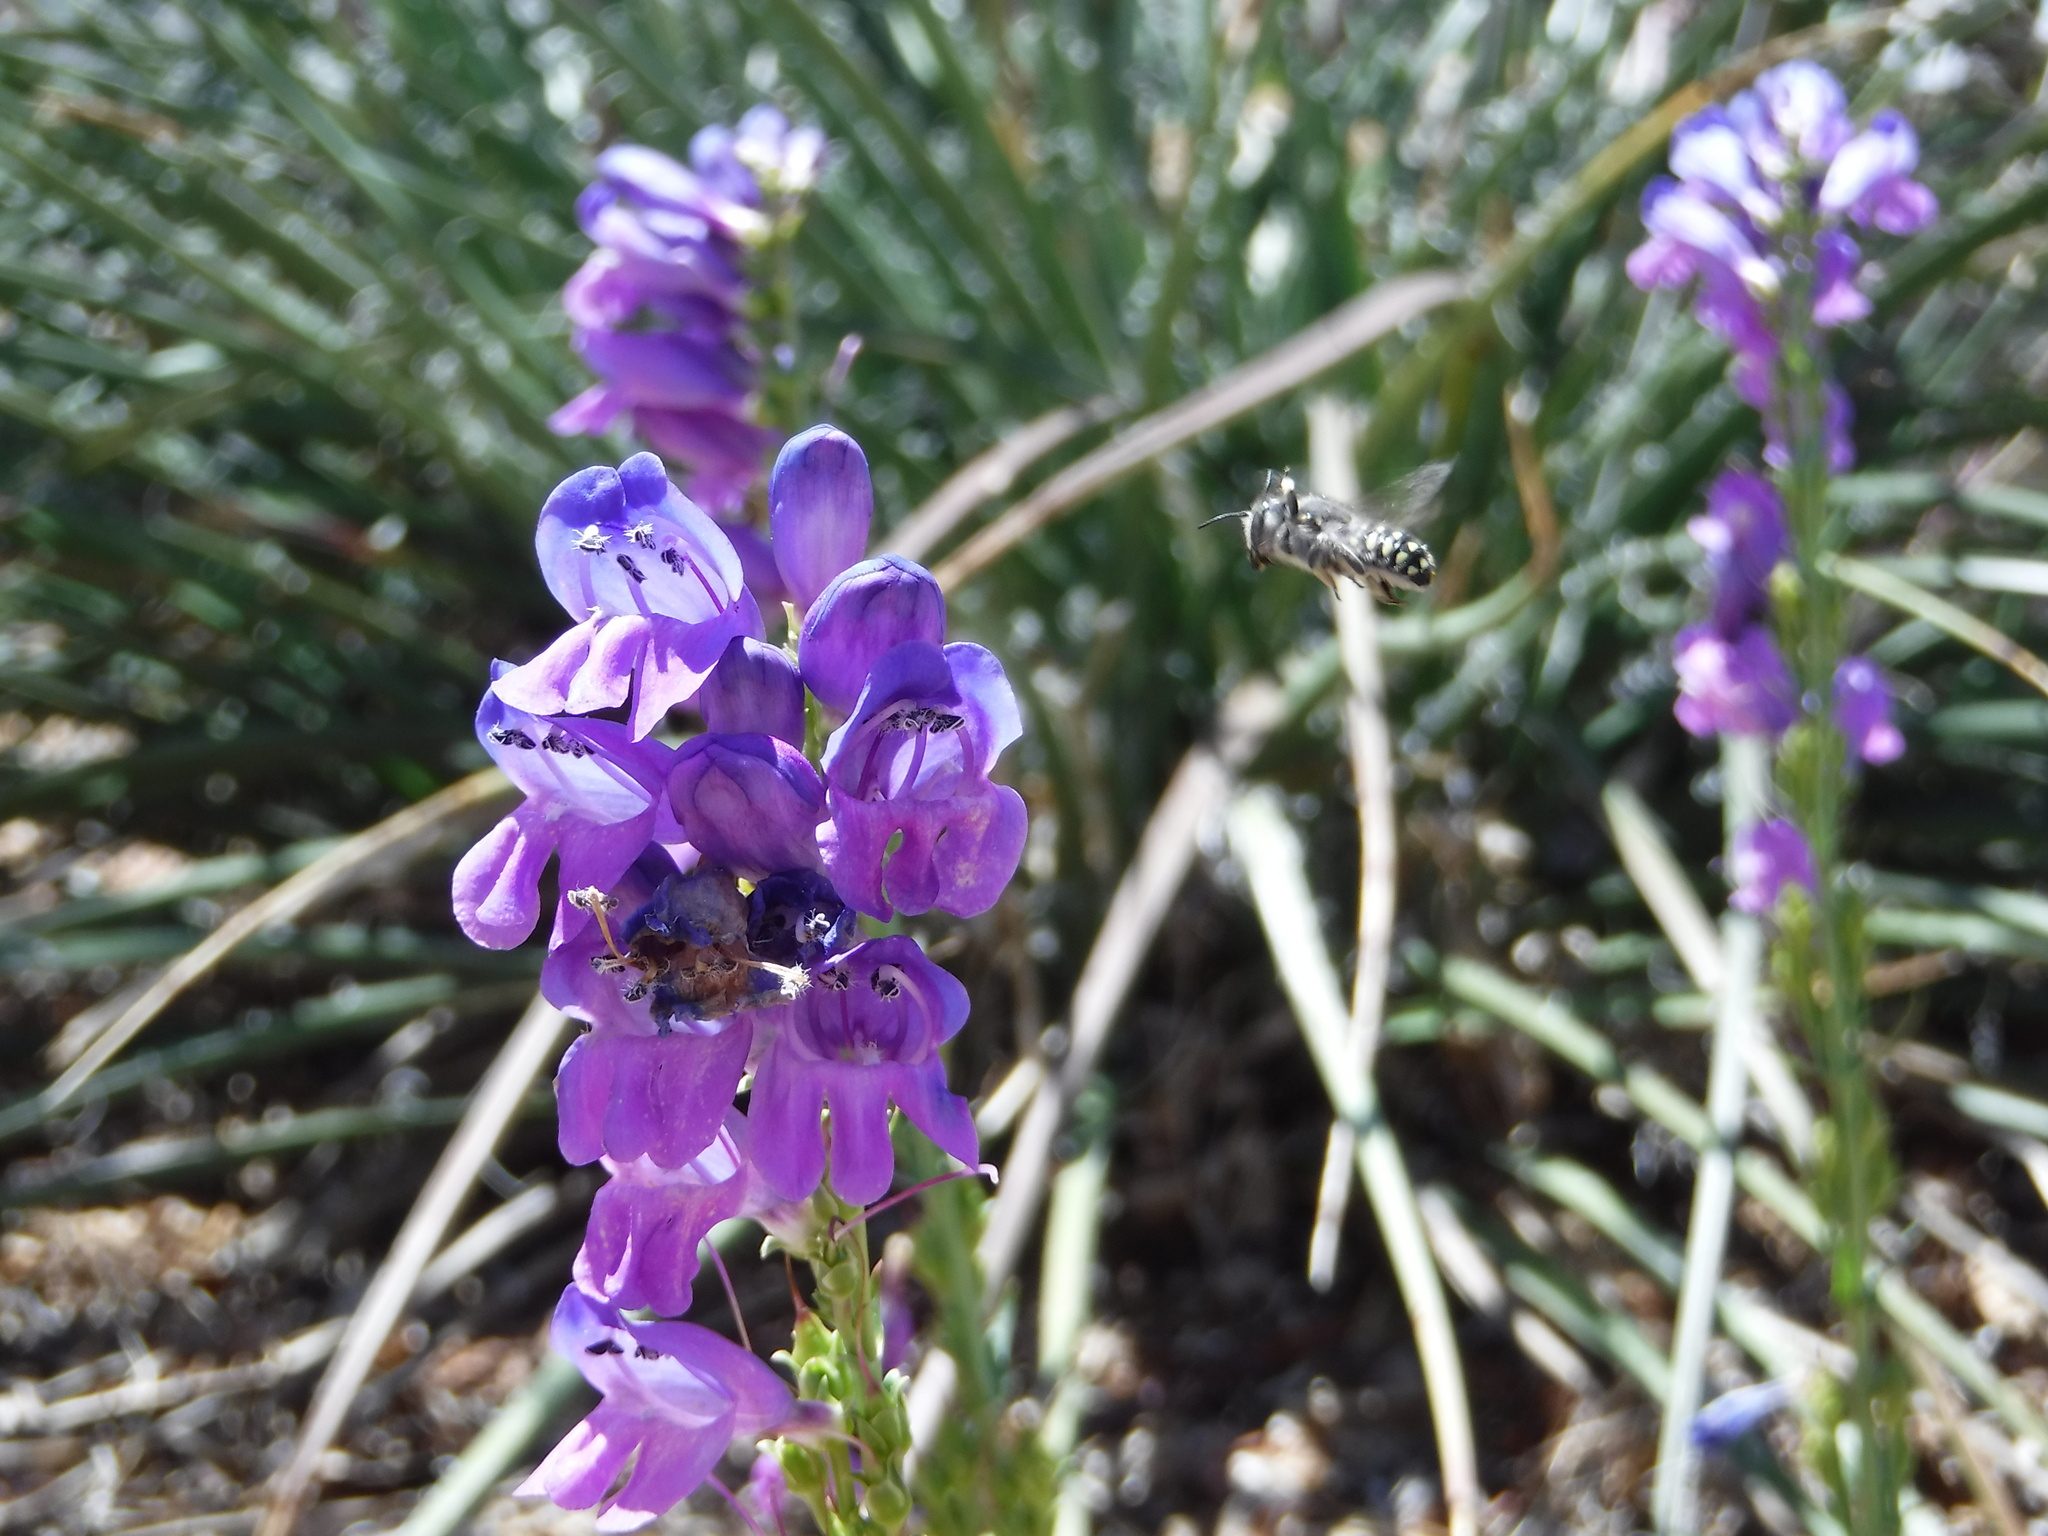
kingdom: Animalia
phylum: Arthropoda
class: Insecta
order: Hymenoptera
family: Megachilidae
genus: Anthidium
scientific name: Anthidium maculosum
